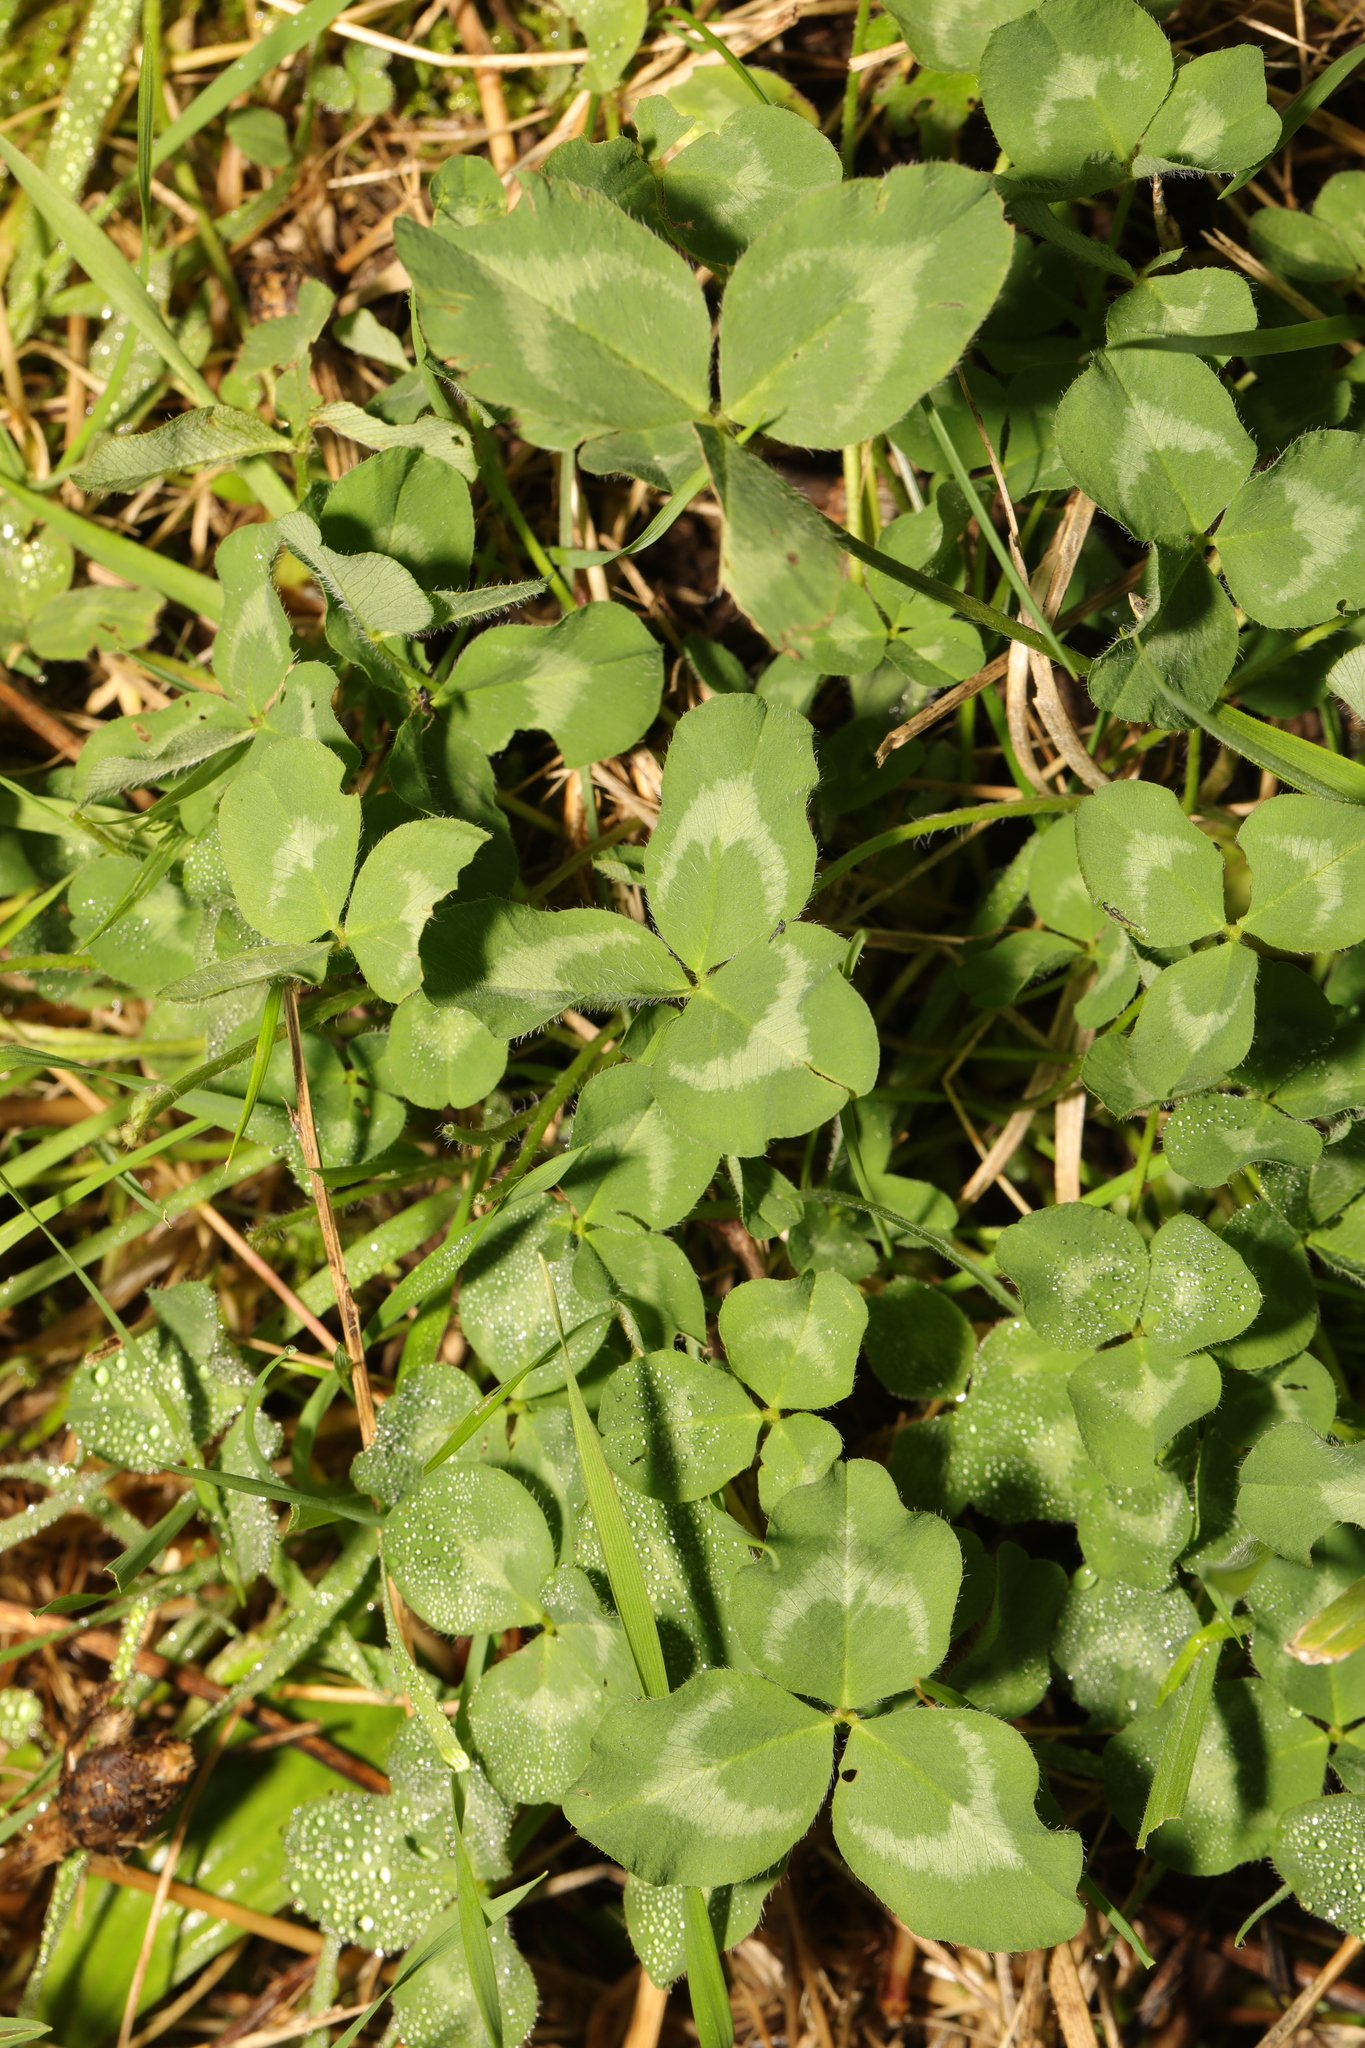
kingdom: Plantae
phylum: Tracheophyta
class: Magnoliopsida
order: Fabales
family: Fabaceae
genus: Trifolium
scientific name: Trifolium pratense
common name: Red clover
